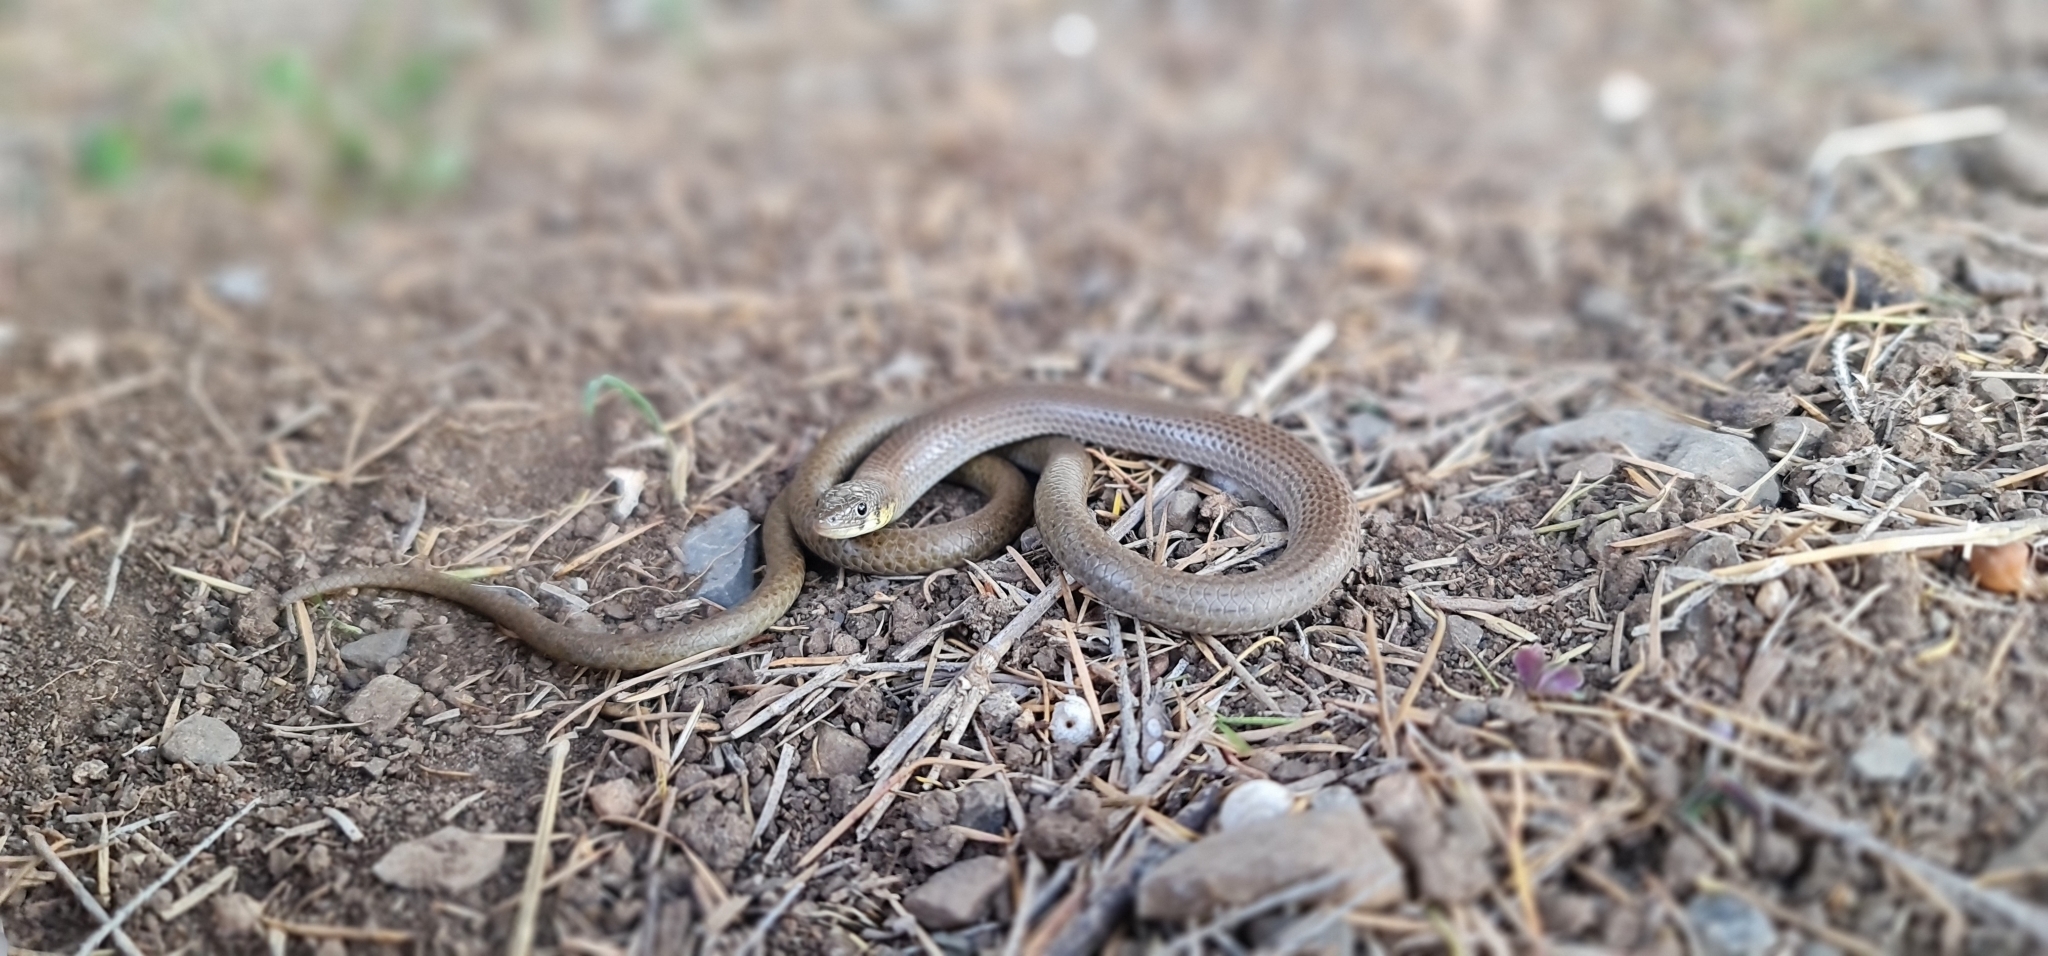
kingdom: Animalia
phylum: Chordata
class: Squamata
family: Pygopodidae
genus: Delma
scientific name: Delma molleri
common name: Gulfs delma
